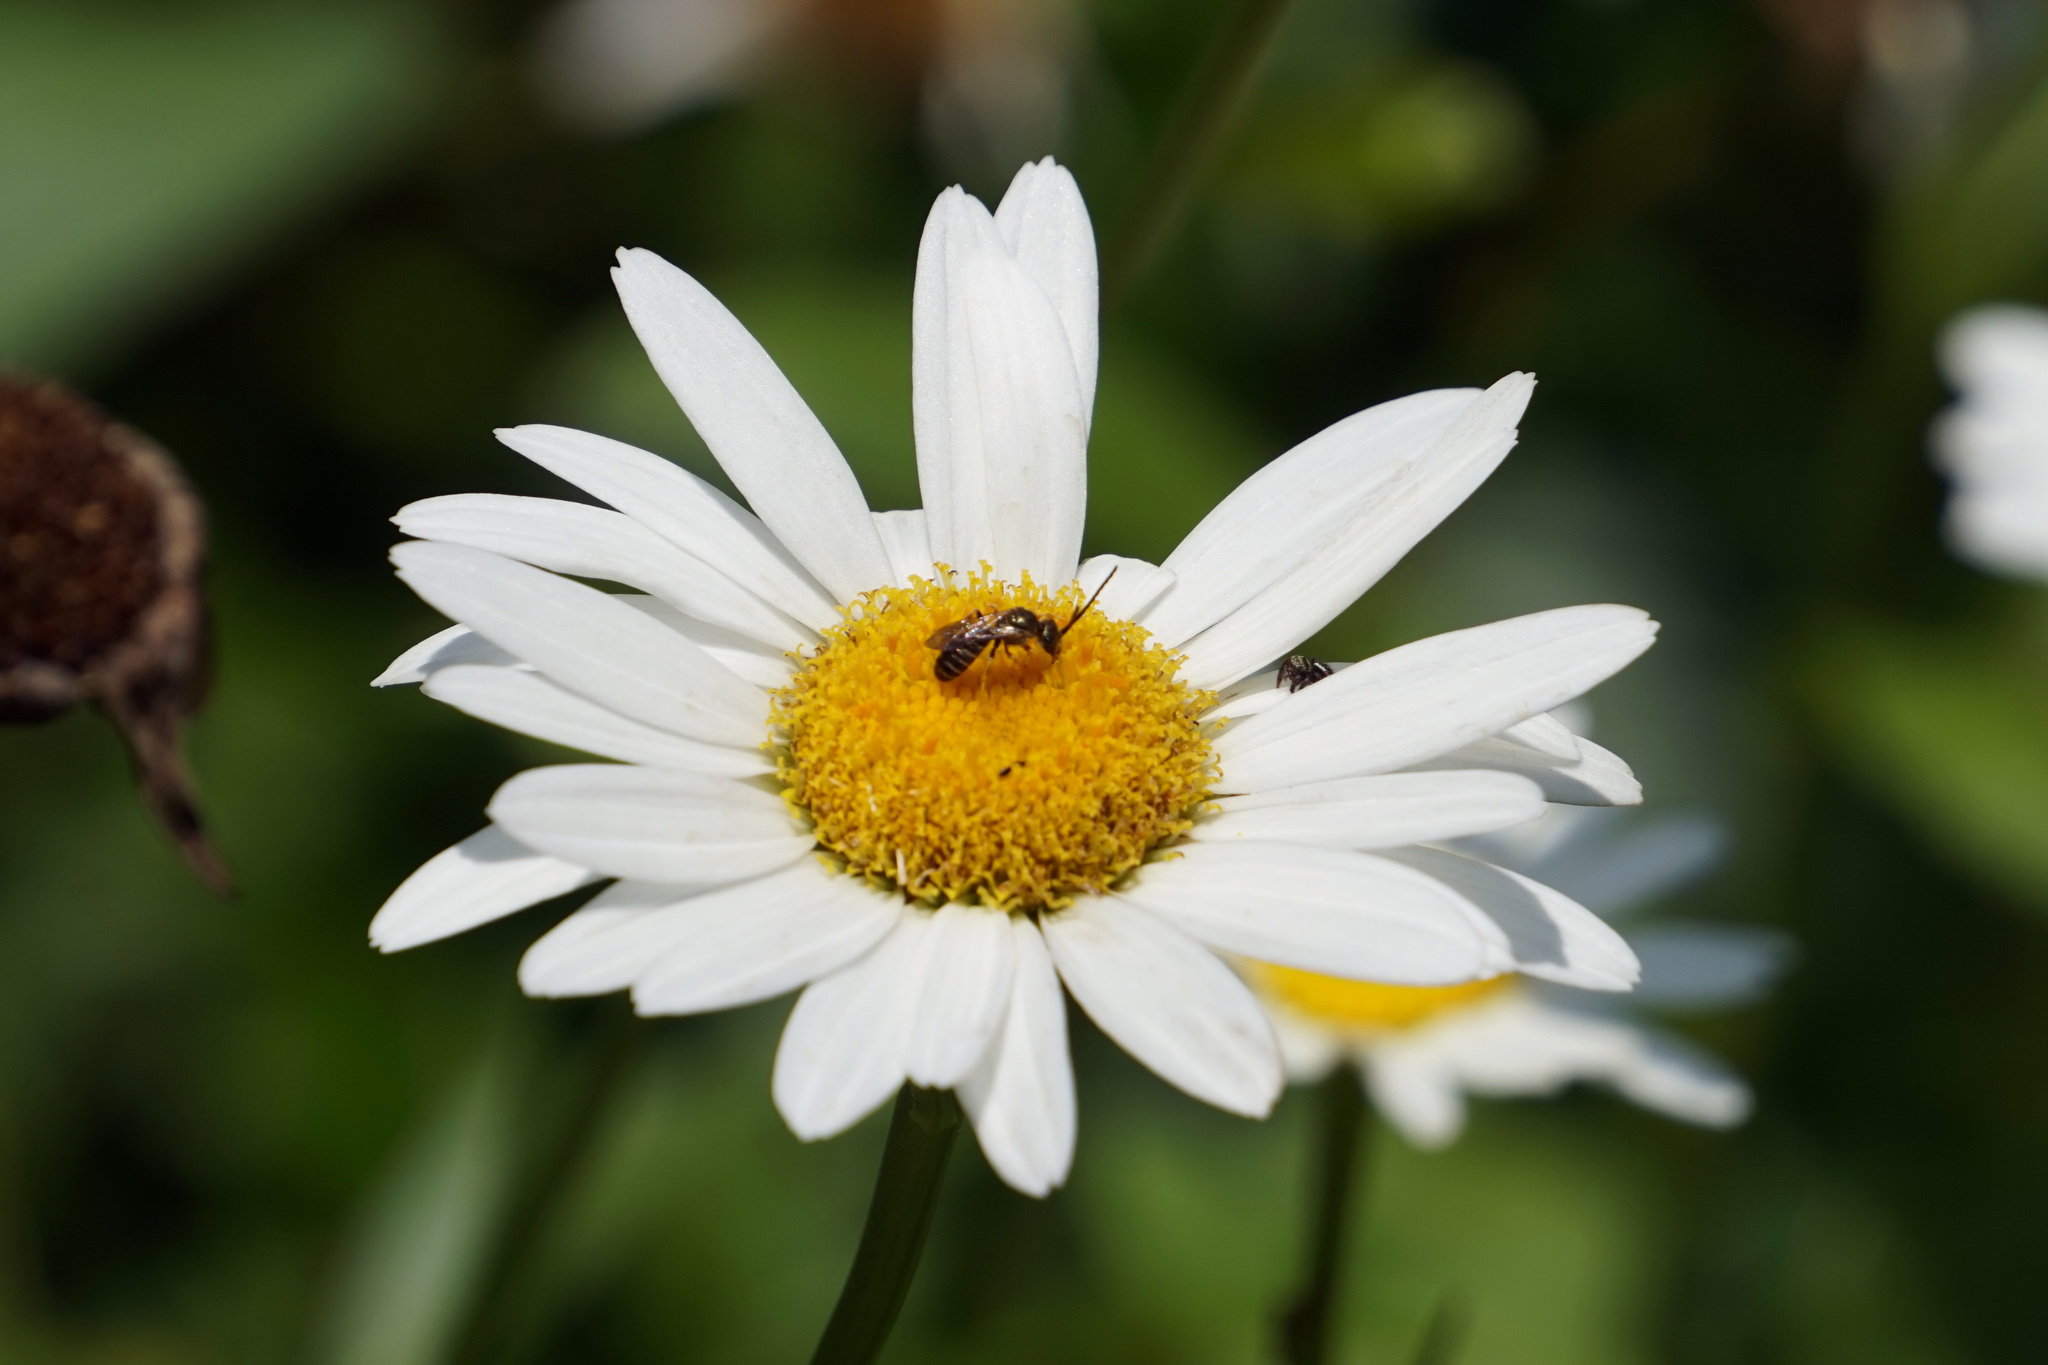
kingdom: Animalia
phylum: Arthropoda
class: Insecta
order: Hymenoptera
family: Halictidae
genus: Halictus
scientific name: Halictus confusus
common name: Southern bronze furrow bee
